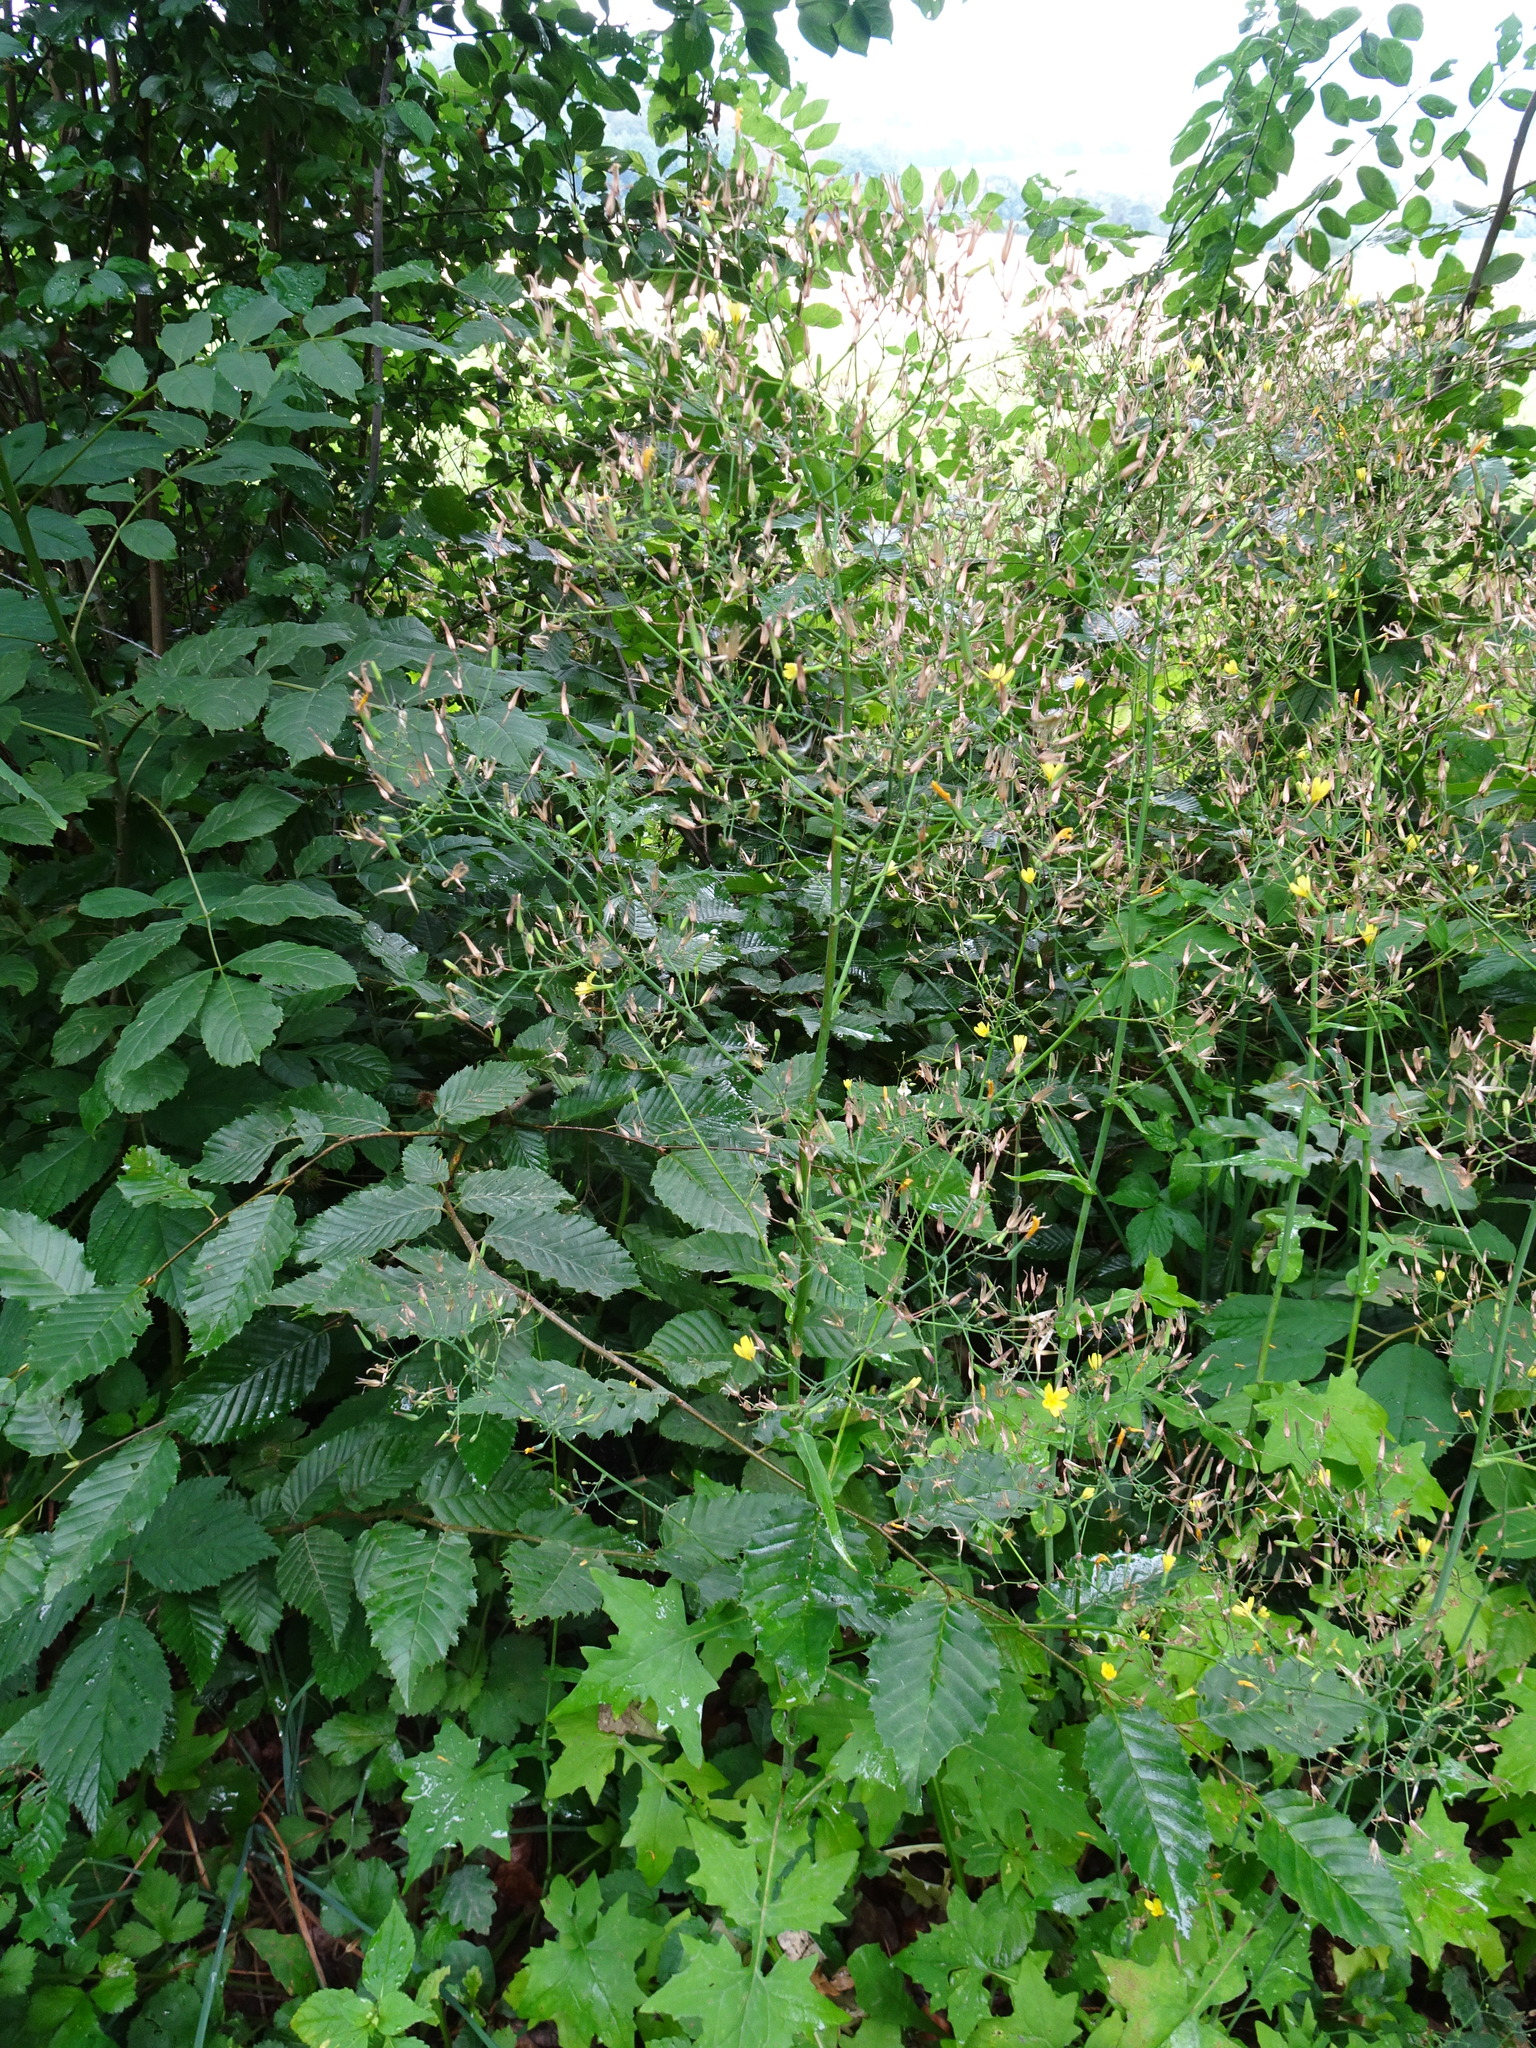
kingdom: Plantae
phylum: Tracheophyta
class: Magnoliopsida
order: Asterales
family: Asteraceae
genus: Mycelis
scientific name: Mycelis muralis
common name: Wall lettuce
